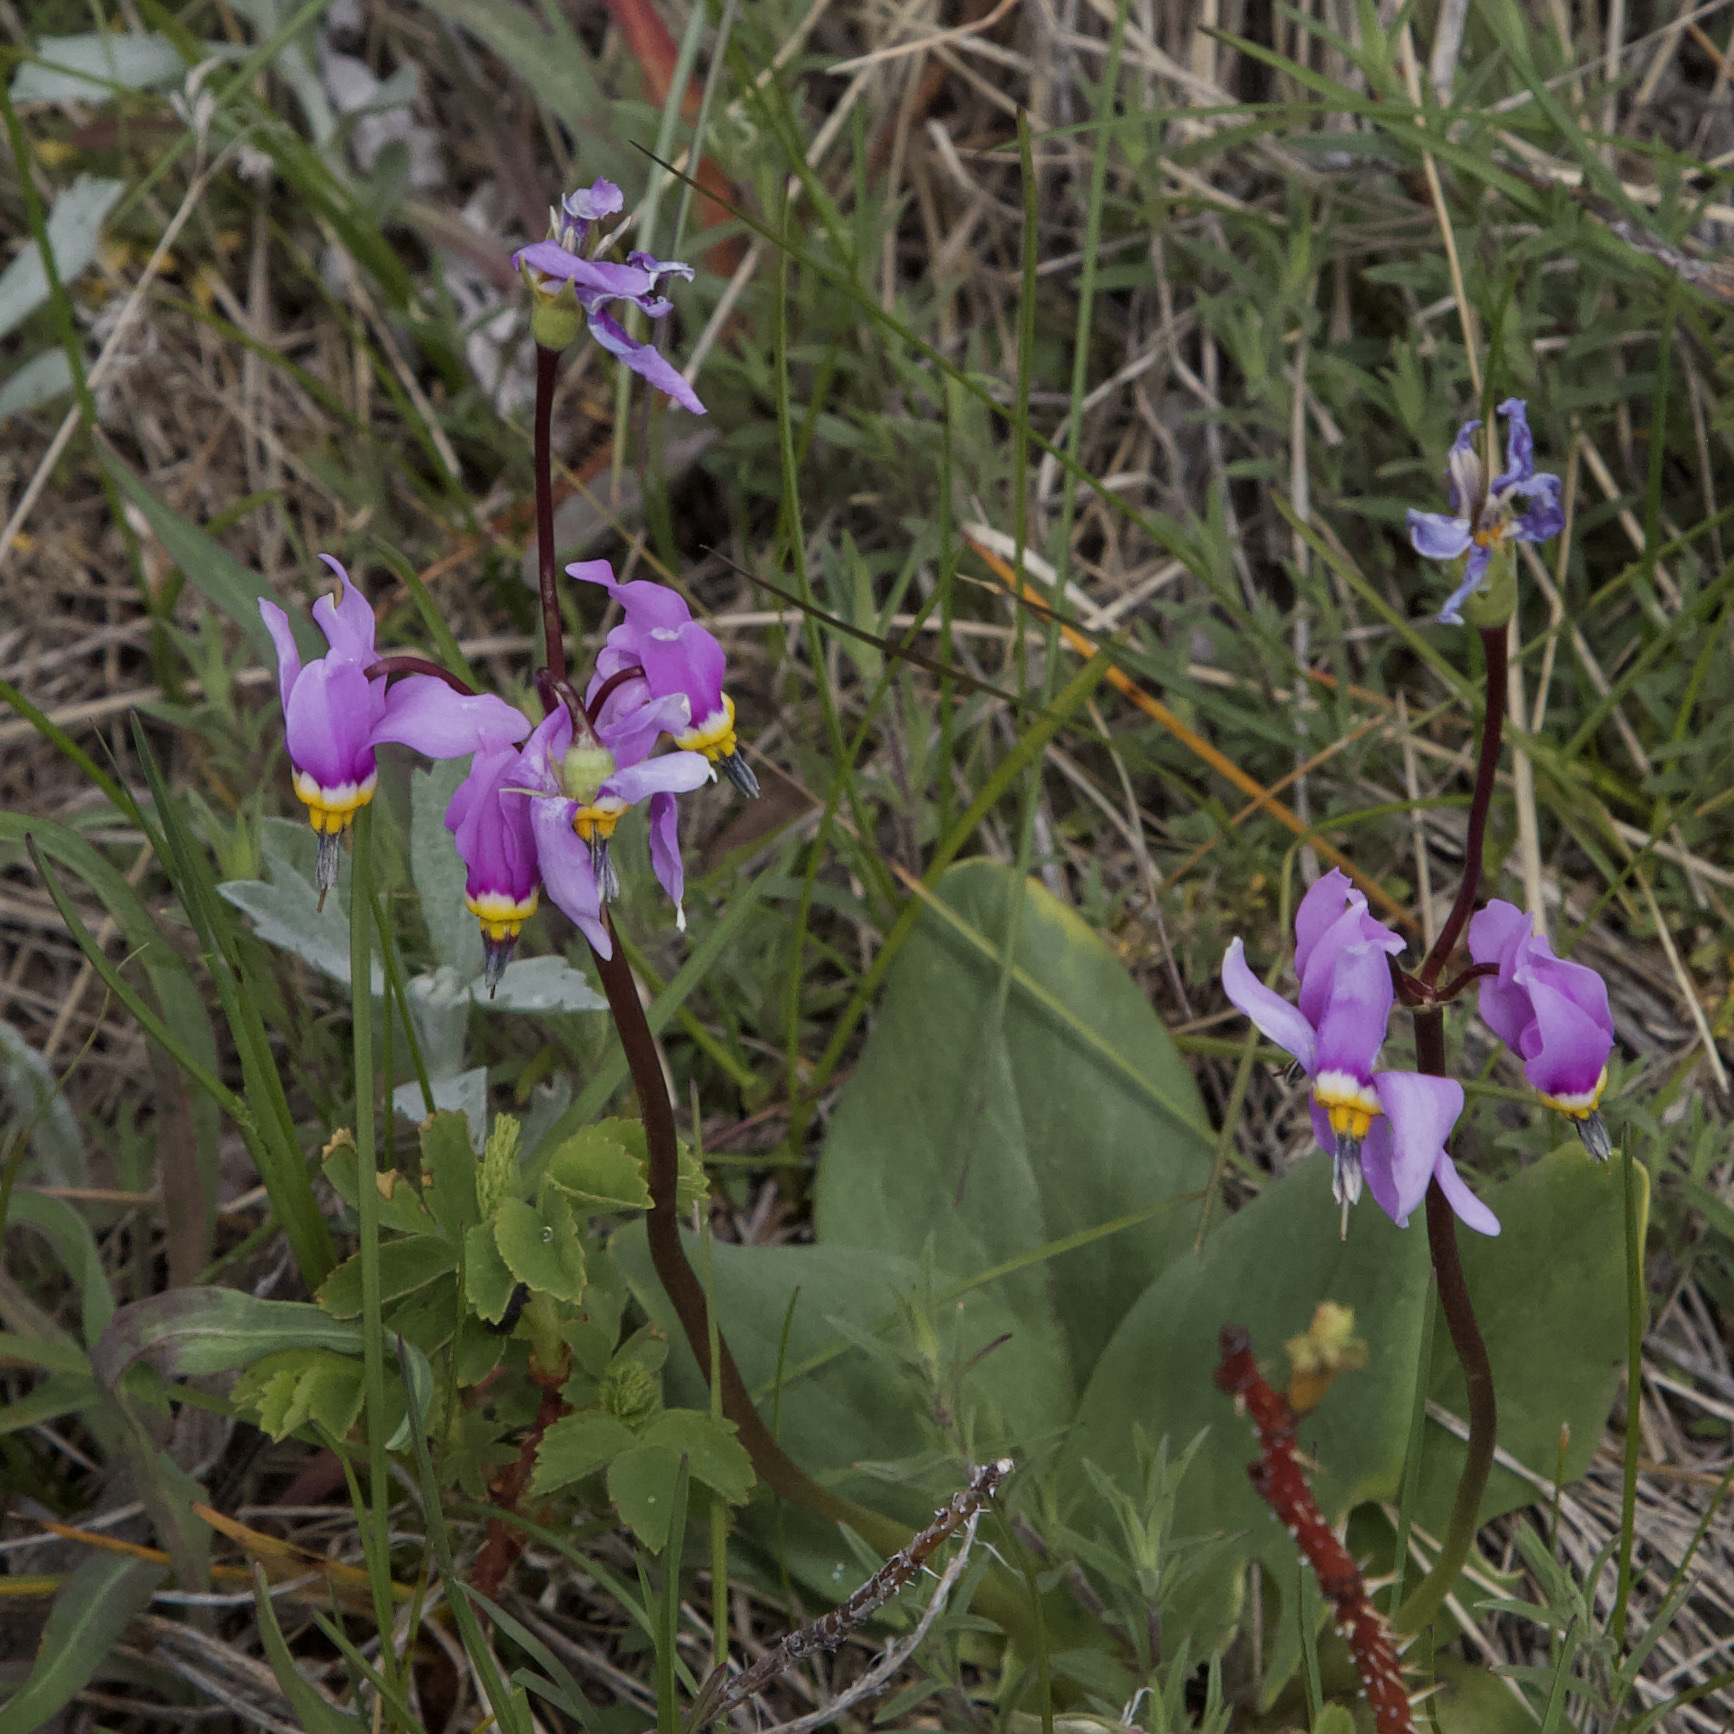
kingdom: Plantae
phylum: Tracheophyta
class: Magnoliopsida
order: Ericales
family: Primulaceae
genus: Dodecatheon
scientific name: Dodecatheon conjugens
